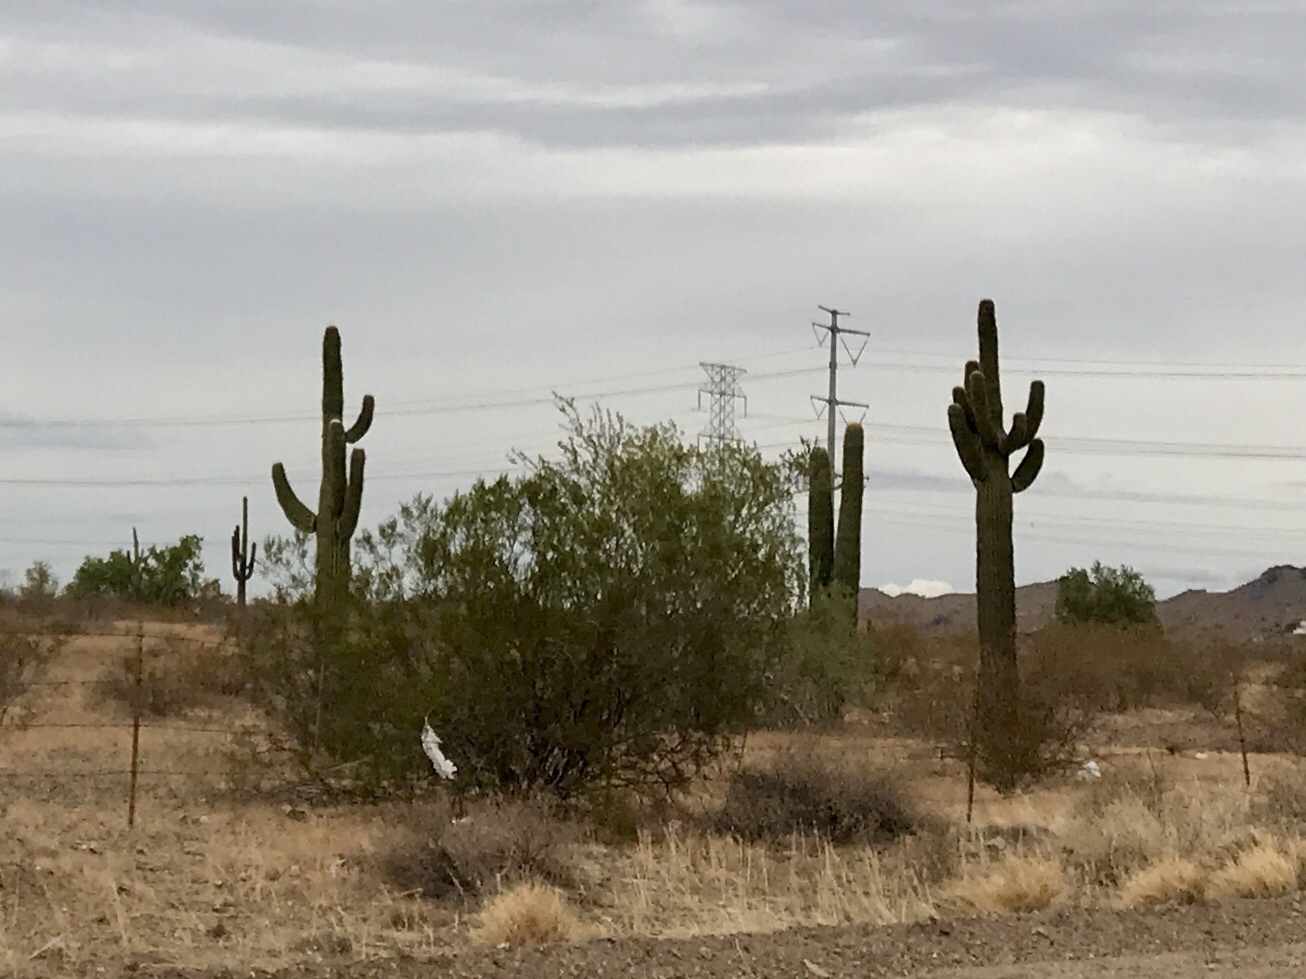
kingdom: Plantae
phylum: Tracheophyta
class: Magnoliopsida
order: Caryophyllales
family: Cactaceae
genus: Carnegiea
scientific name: Carnegiea gigantea
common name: Saguaro
